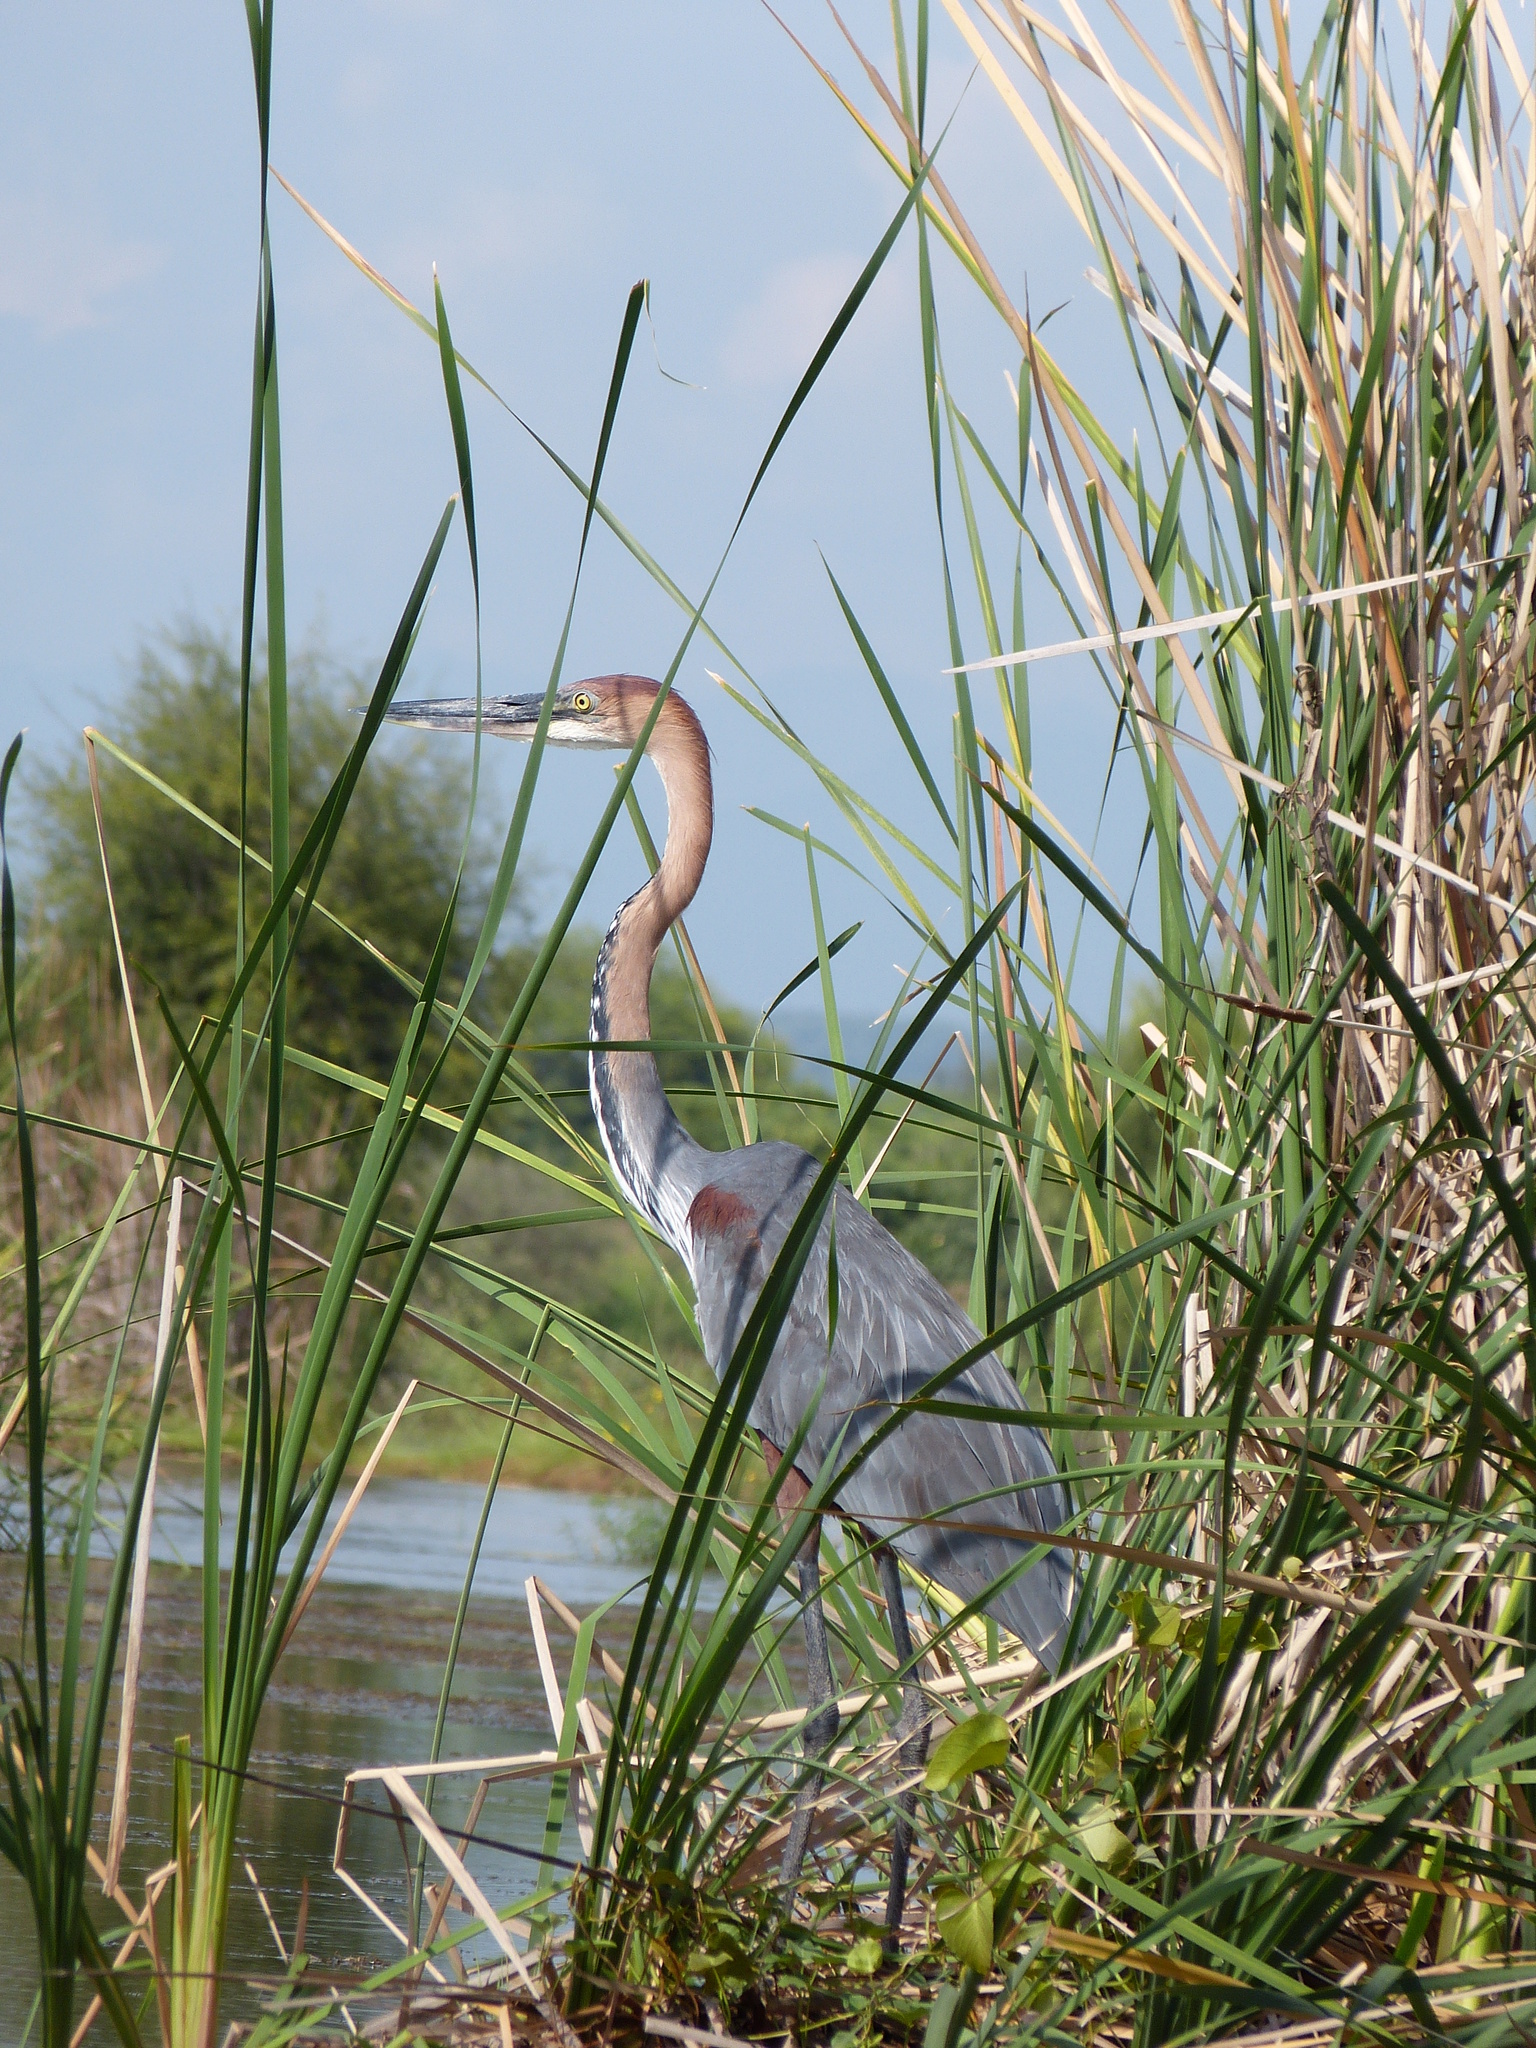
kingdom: Animalia
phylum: Chordata
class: Aves
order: Pelecaniformes
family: Ardeidae
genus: Ardea
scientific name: Ardea goliath
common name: Goliath heron
